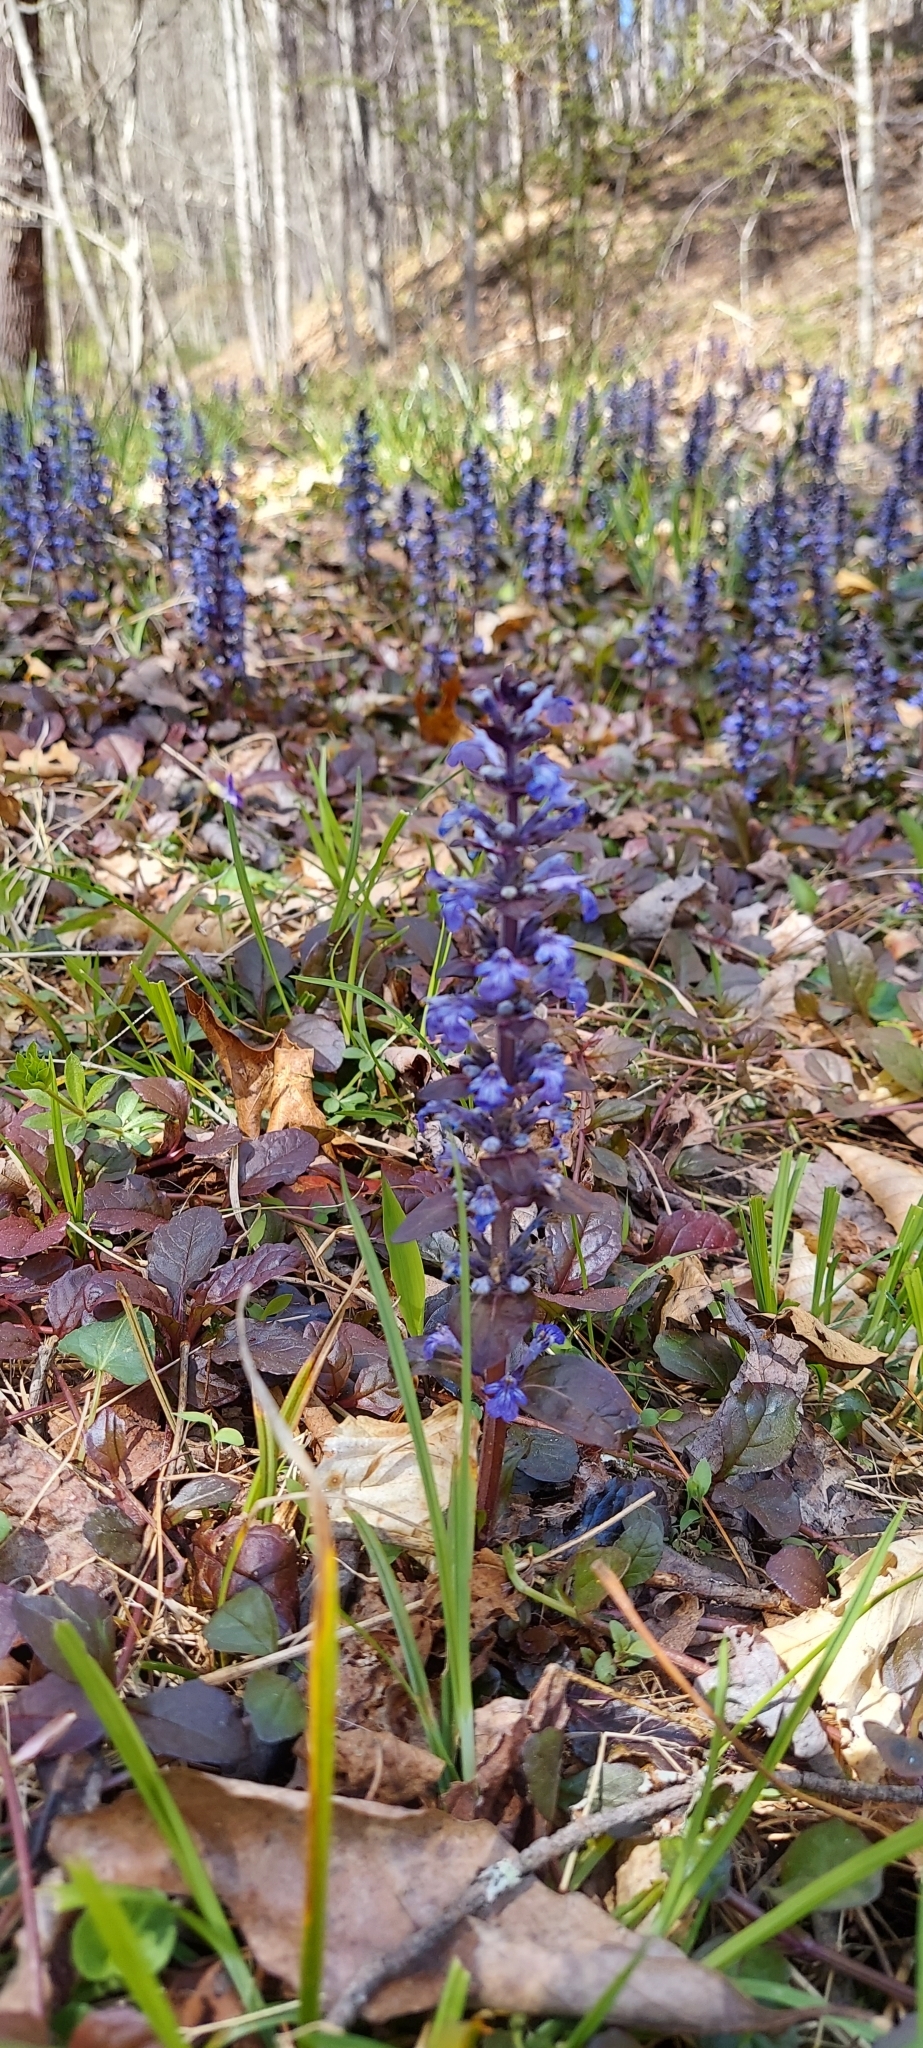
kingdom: Plantae
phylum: Tracheophyta
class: Magnoliopsida
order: Lamiales
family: Lamiaceae
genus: Ajuga
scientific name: Ajuga reptans
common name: Bugle
